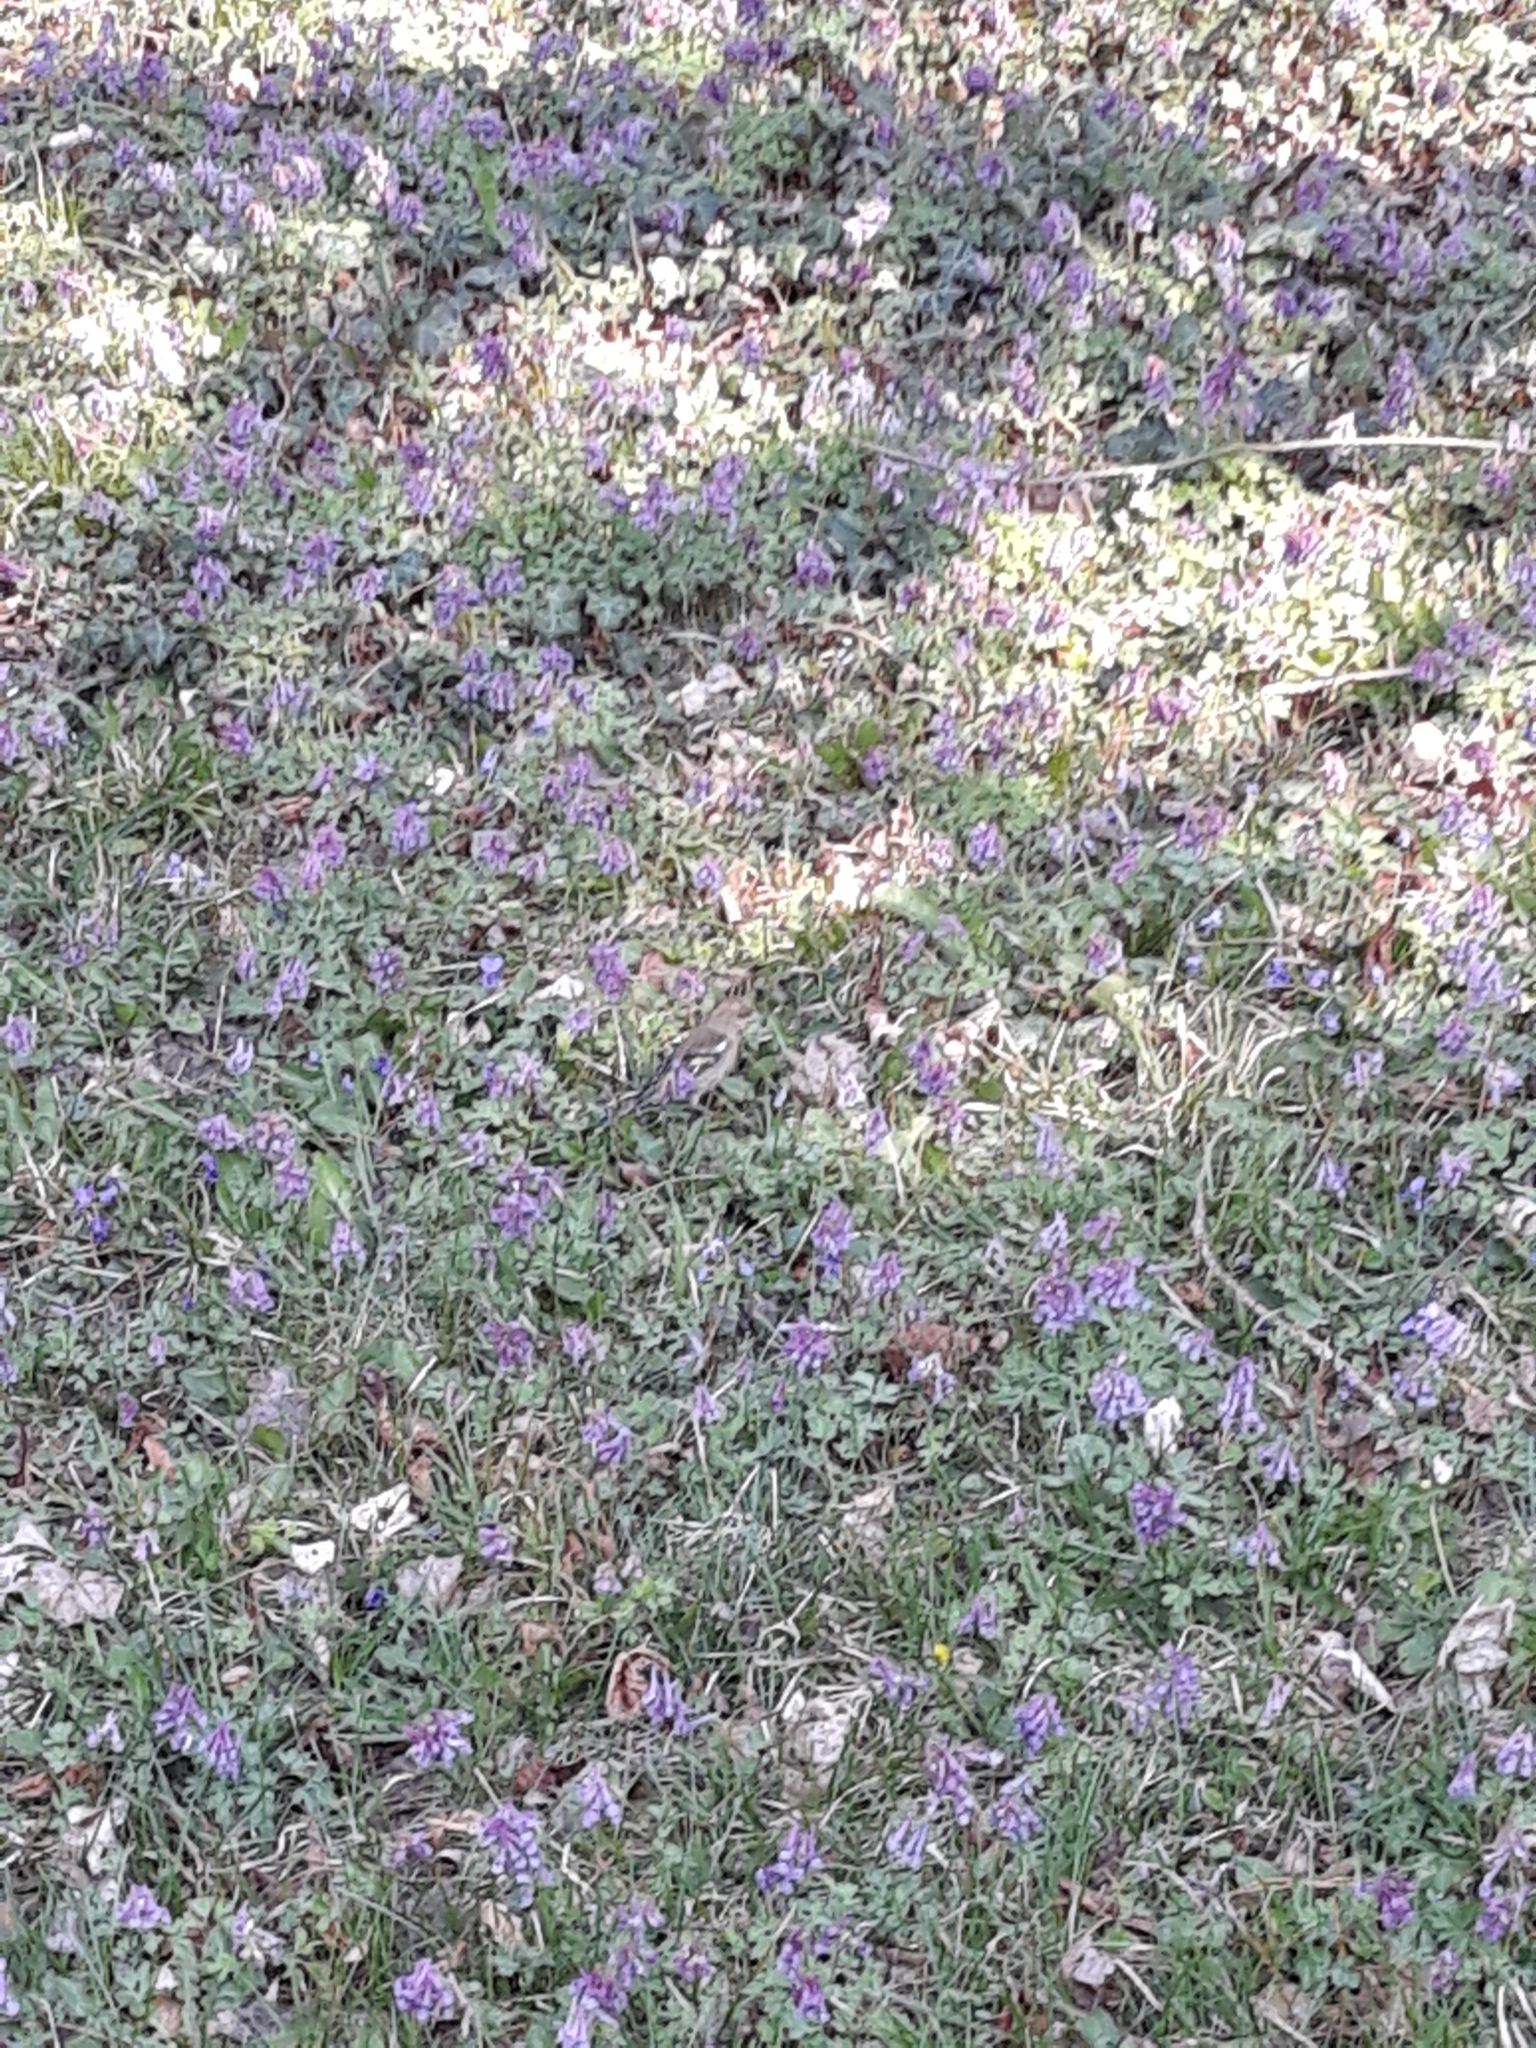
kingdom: Animalia
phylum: Chordata
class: Aves
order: Passeriformes
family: Fringillidae
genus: Fringilla
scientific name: Fringilla coelebs
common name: Common chaffinch
